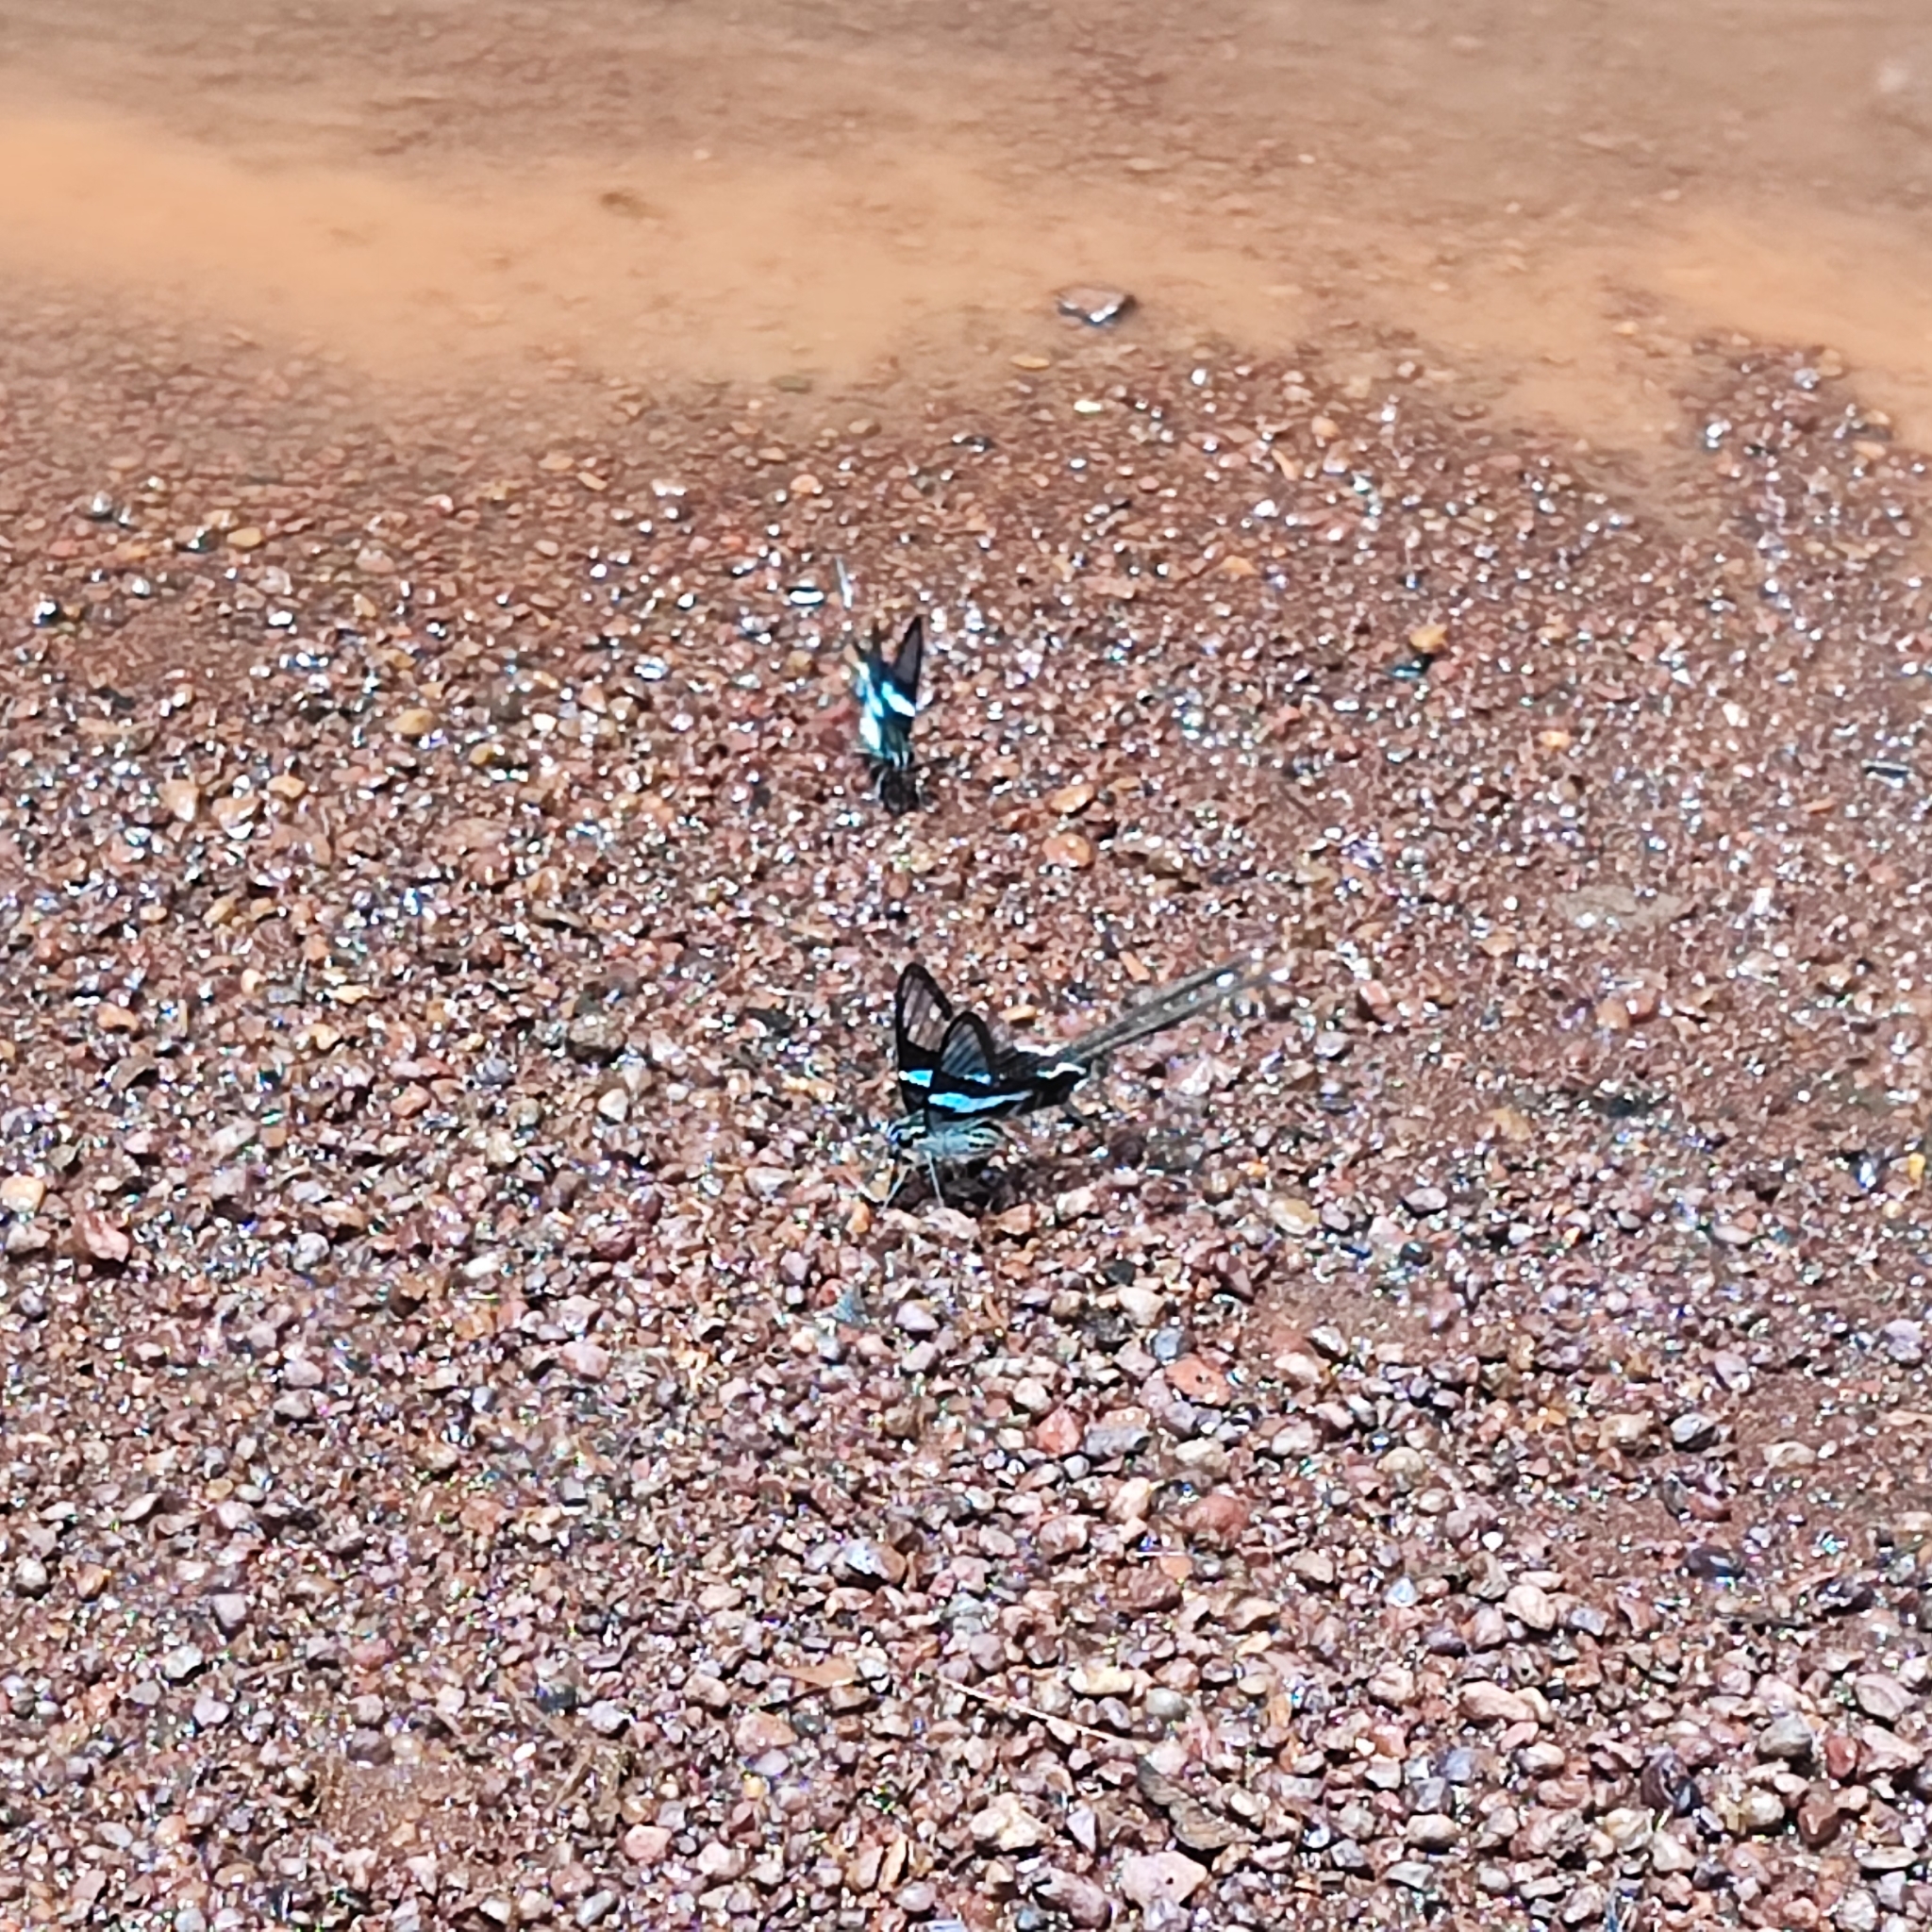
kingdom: Animalia
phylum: Arthropoda
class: Insecta
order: Lepidoptera
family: Papilionidae
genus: Lamproptera
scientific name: Lamproptera meges
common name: Green dragontail
